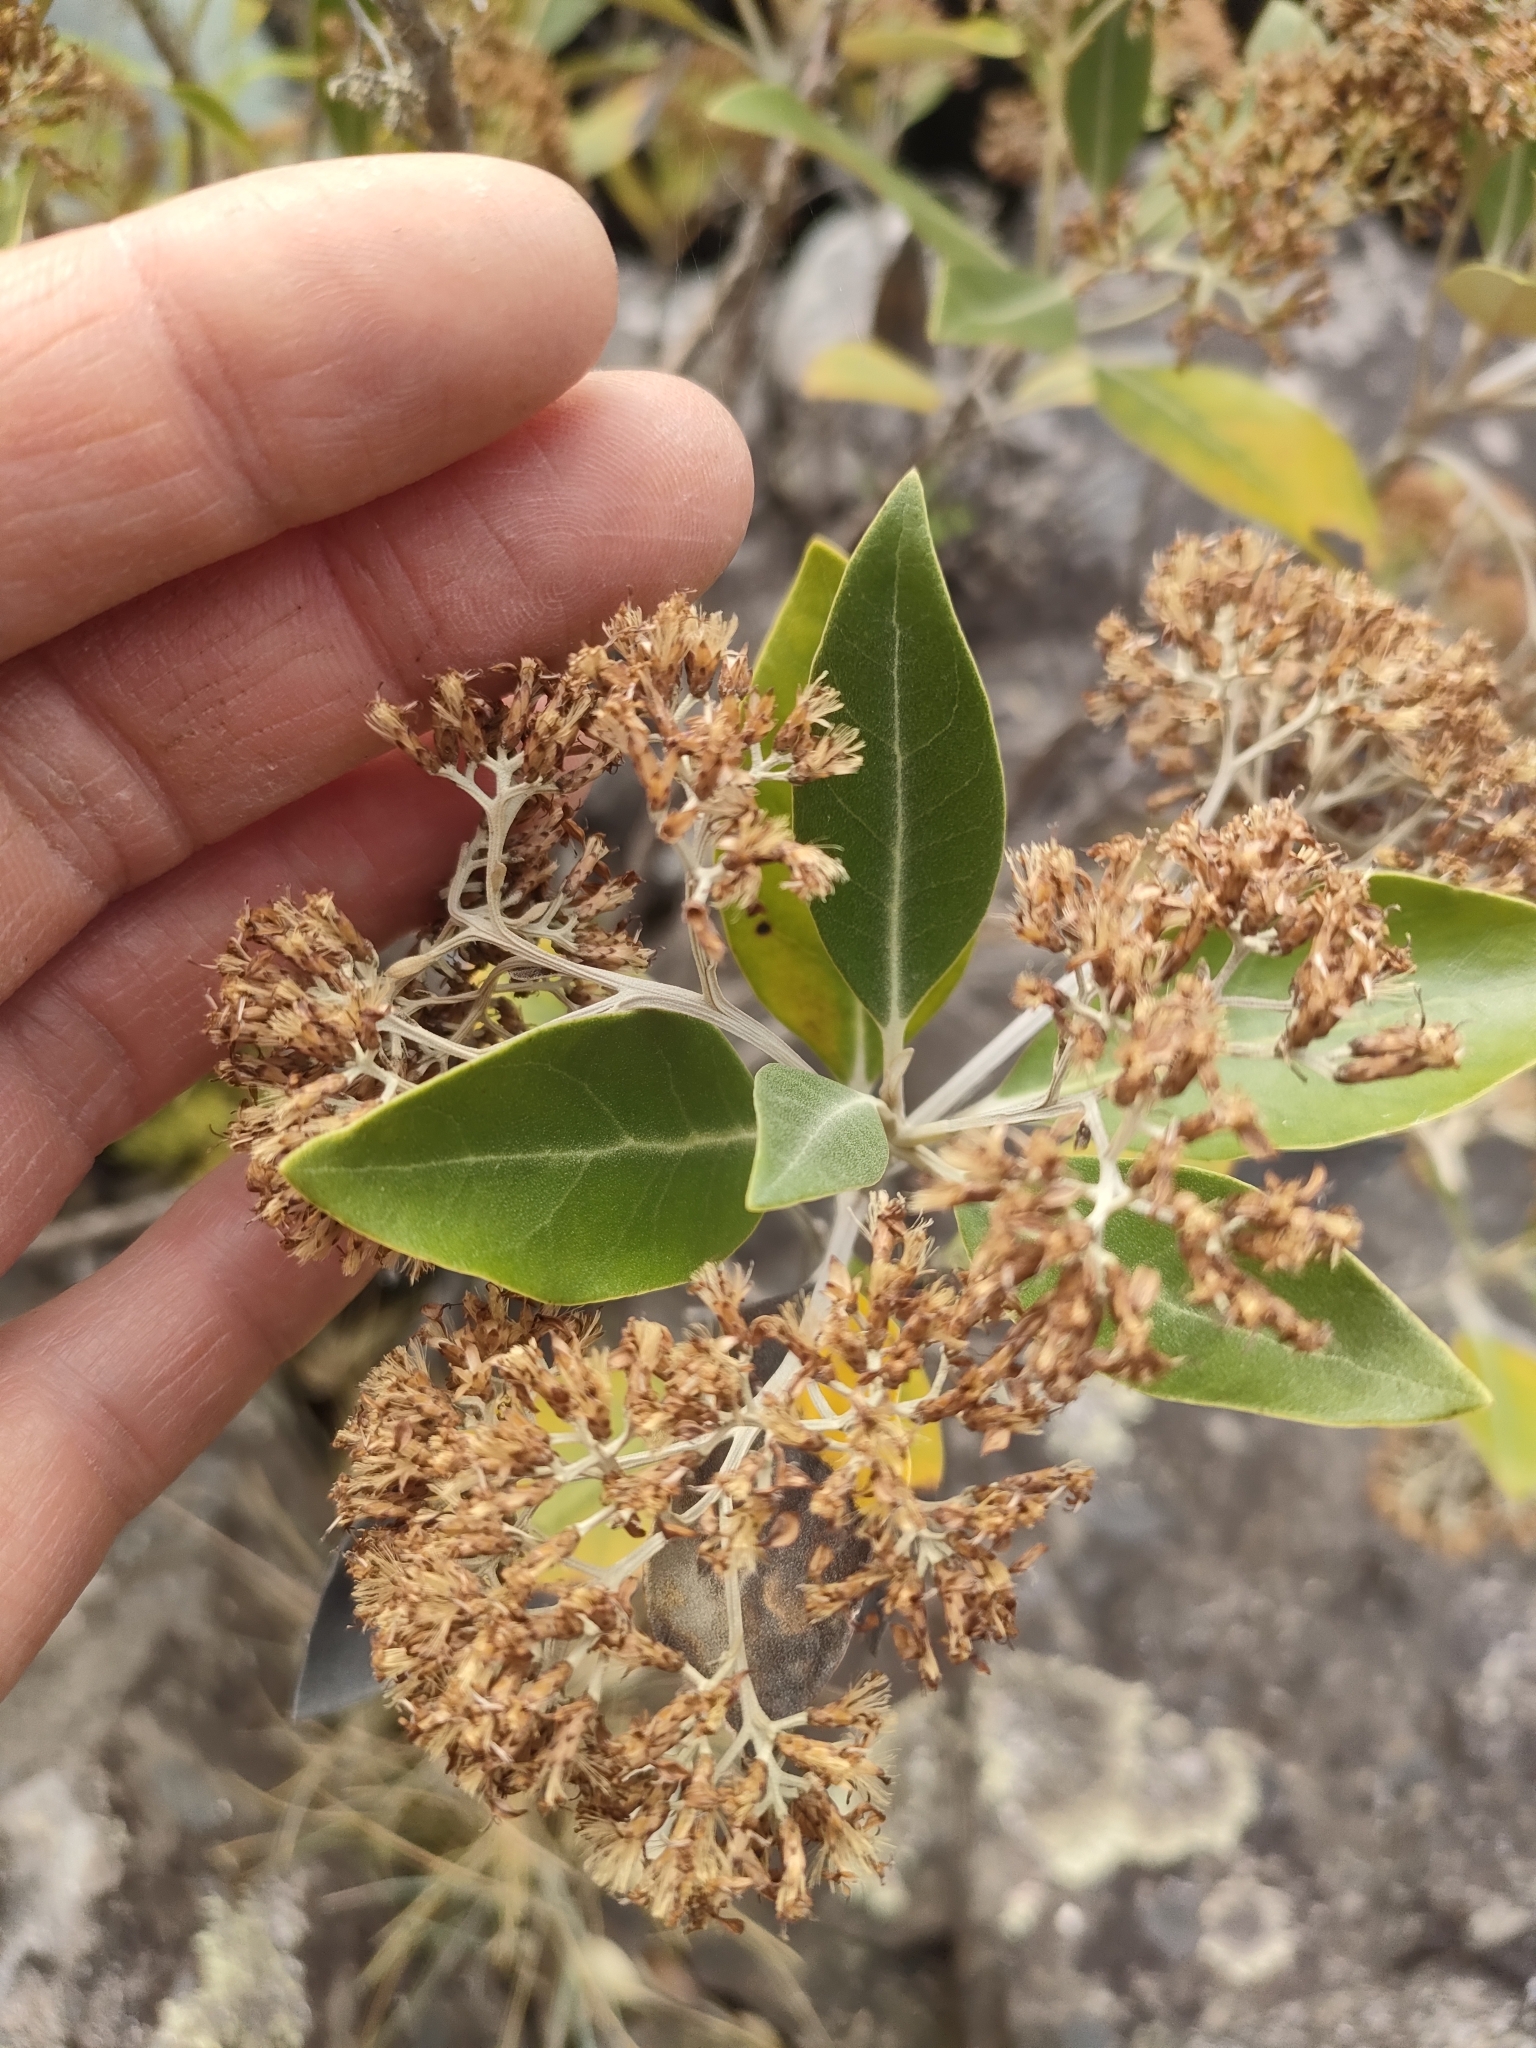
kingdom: Plantae
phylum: Tracheophyta
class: Magnoliopsida
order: Asterales
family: Asteraceae
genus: Olearia
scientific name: Olearia avicenniifolia
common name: Mangrove-leaf daisybush
